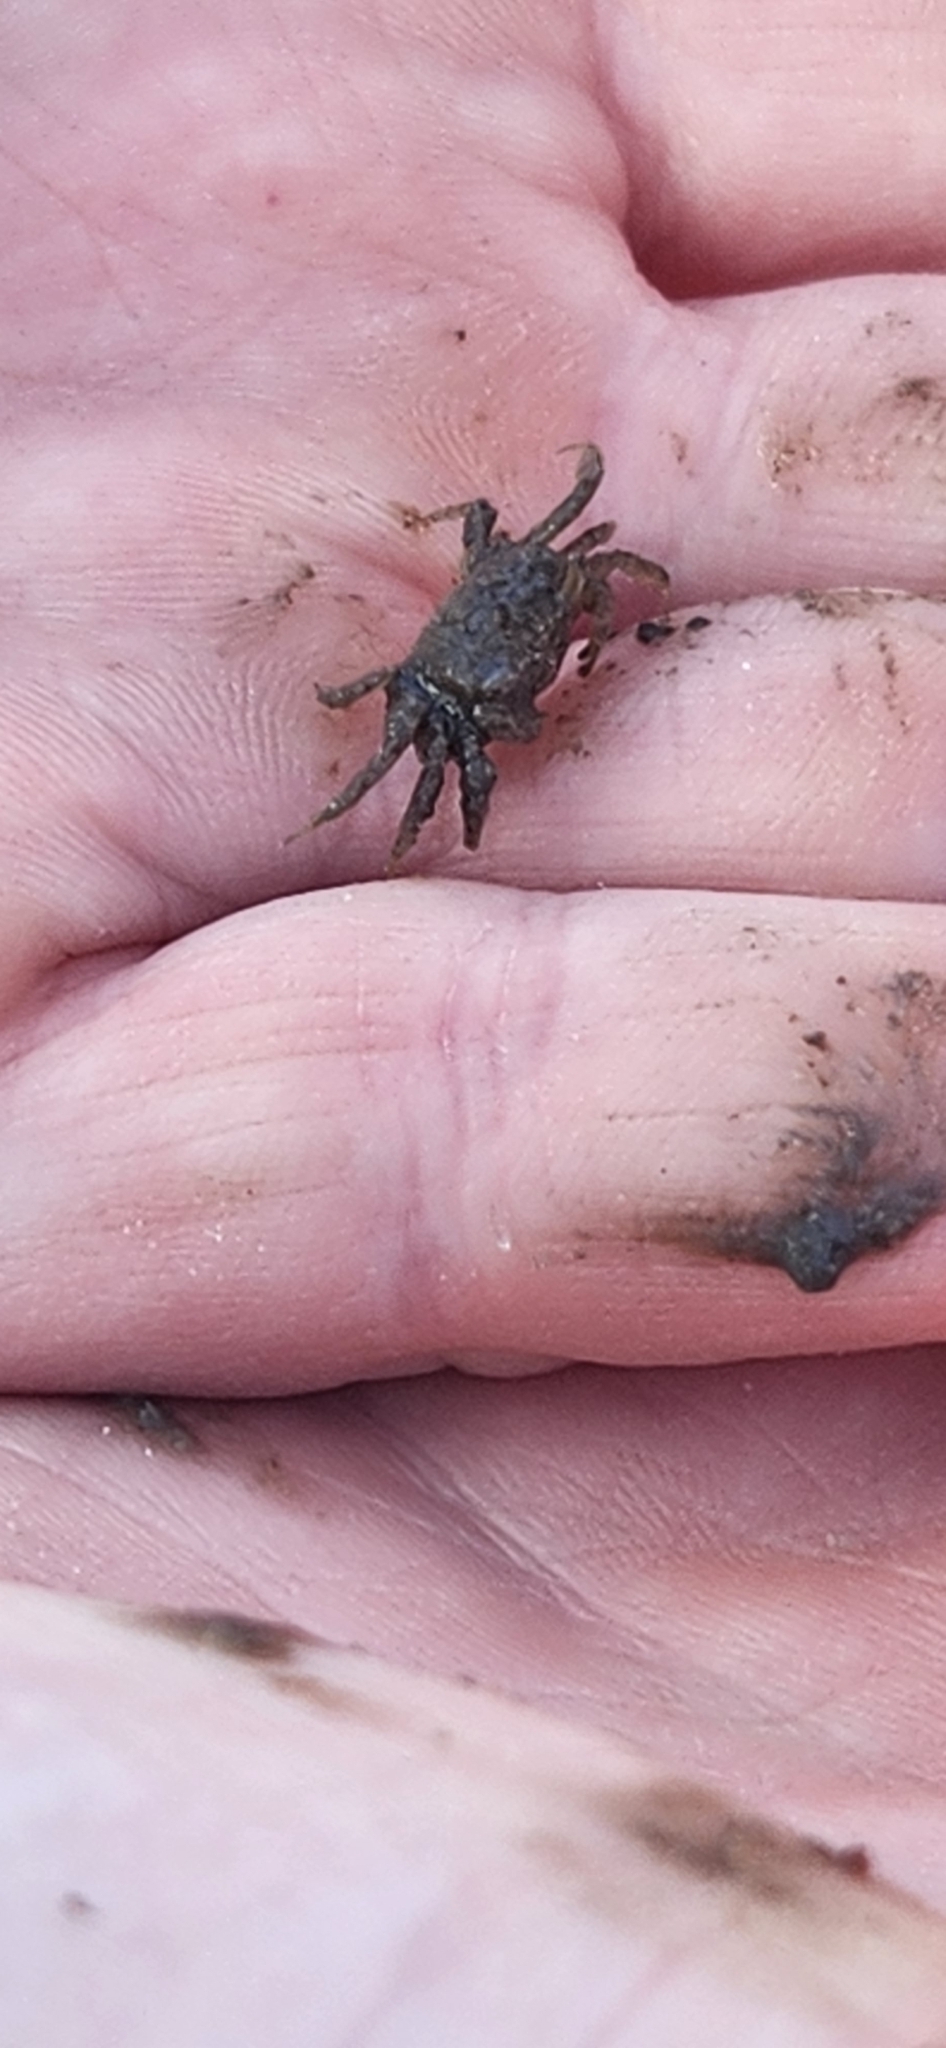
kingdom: Animalia
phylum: Arthropoda
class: Malacostraca
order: Decapoda
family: Sesarmidae
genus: Armases
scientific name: Armases cinereum
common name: Squareback marsh crab
